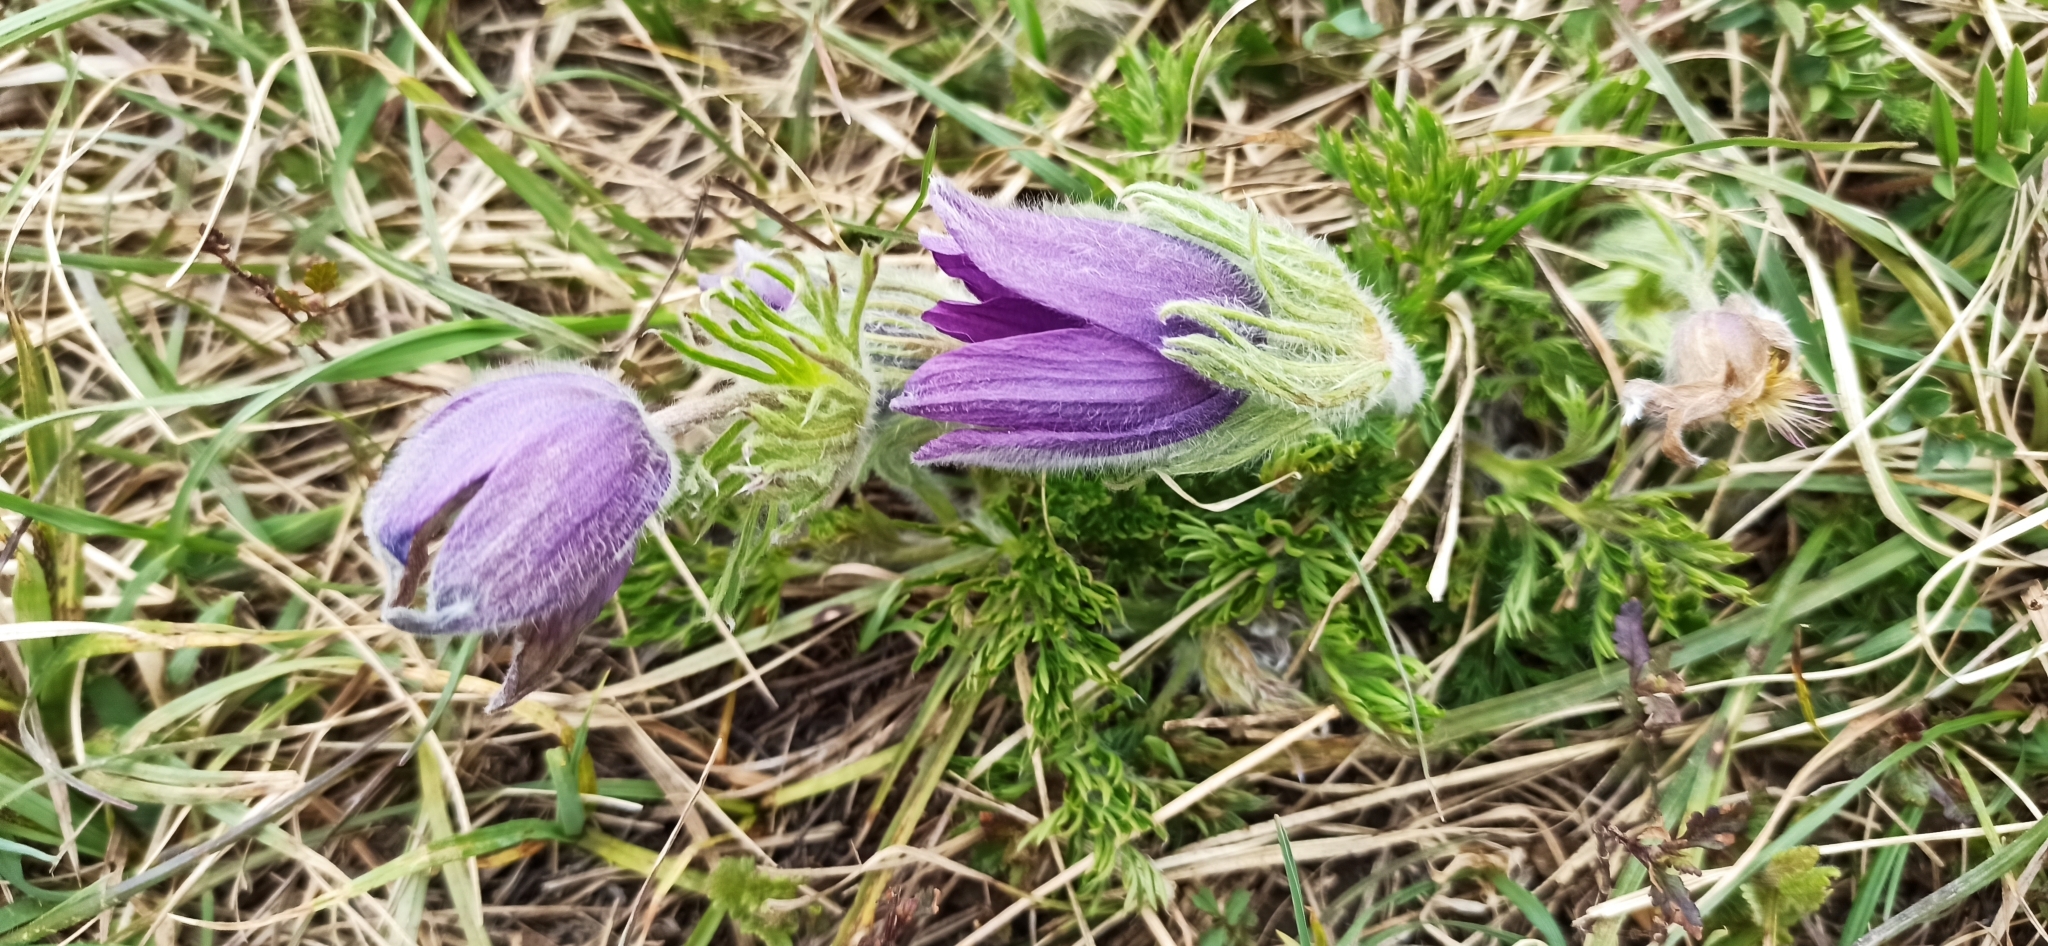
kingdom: Plantae
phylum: Tracheophyta
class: Magnoliopsida
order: Ranunculales
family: Ranunculaceae
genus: Pulsatilla
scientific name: Pulsatilla vulgaris
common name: Pasqueflower
